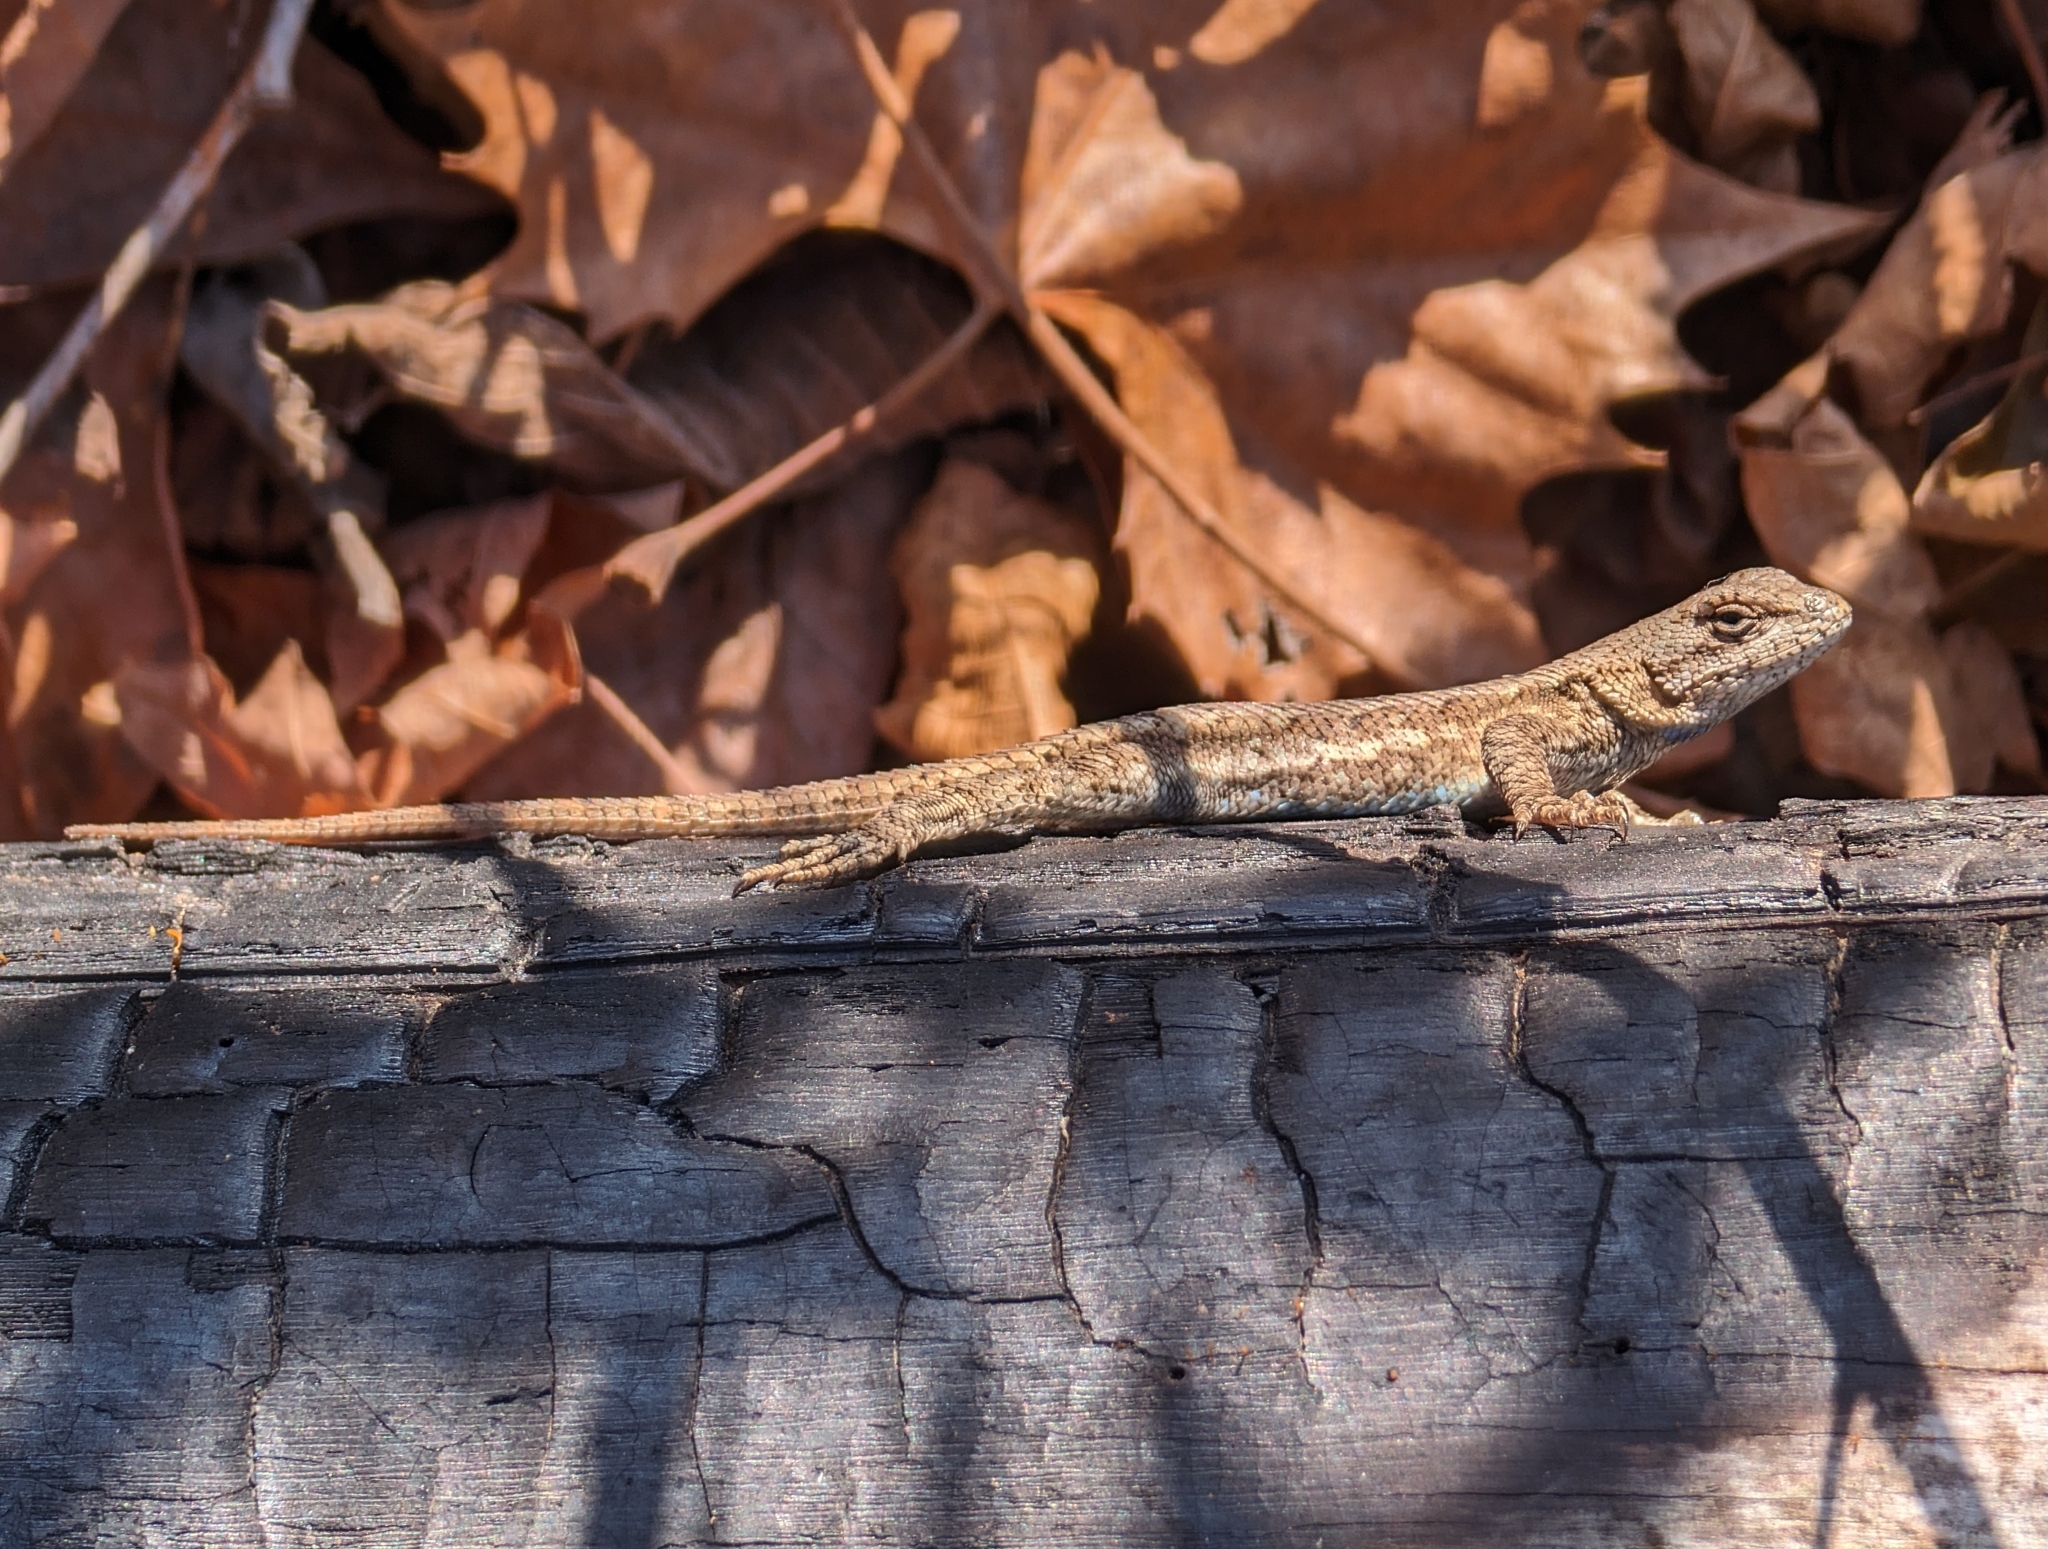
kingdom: Animalia
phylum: Chordata
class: Squamata
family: Phrynosomatidae
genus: Sceloporus
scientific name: Sceloporus consobrinus
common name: Southern prairie lizard
